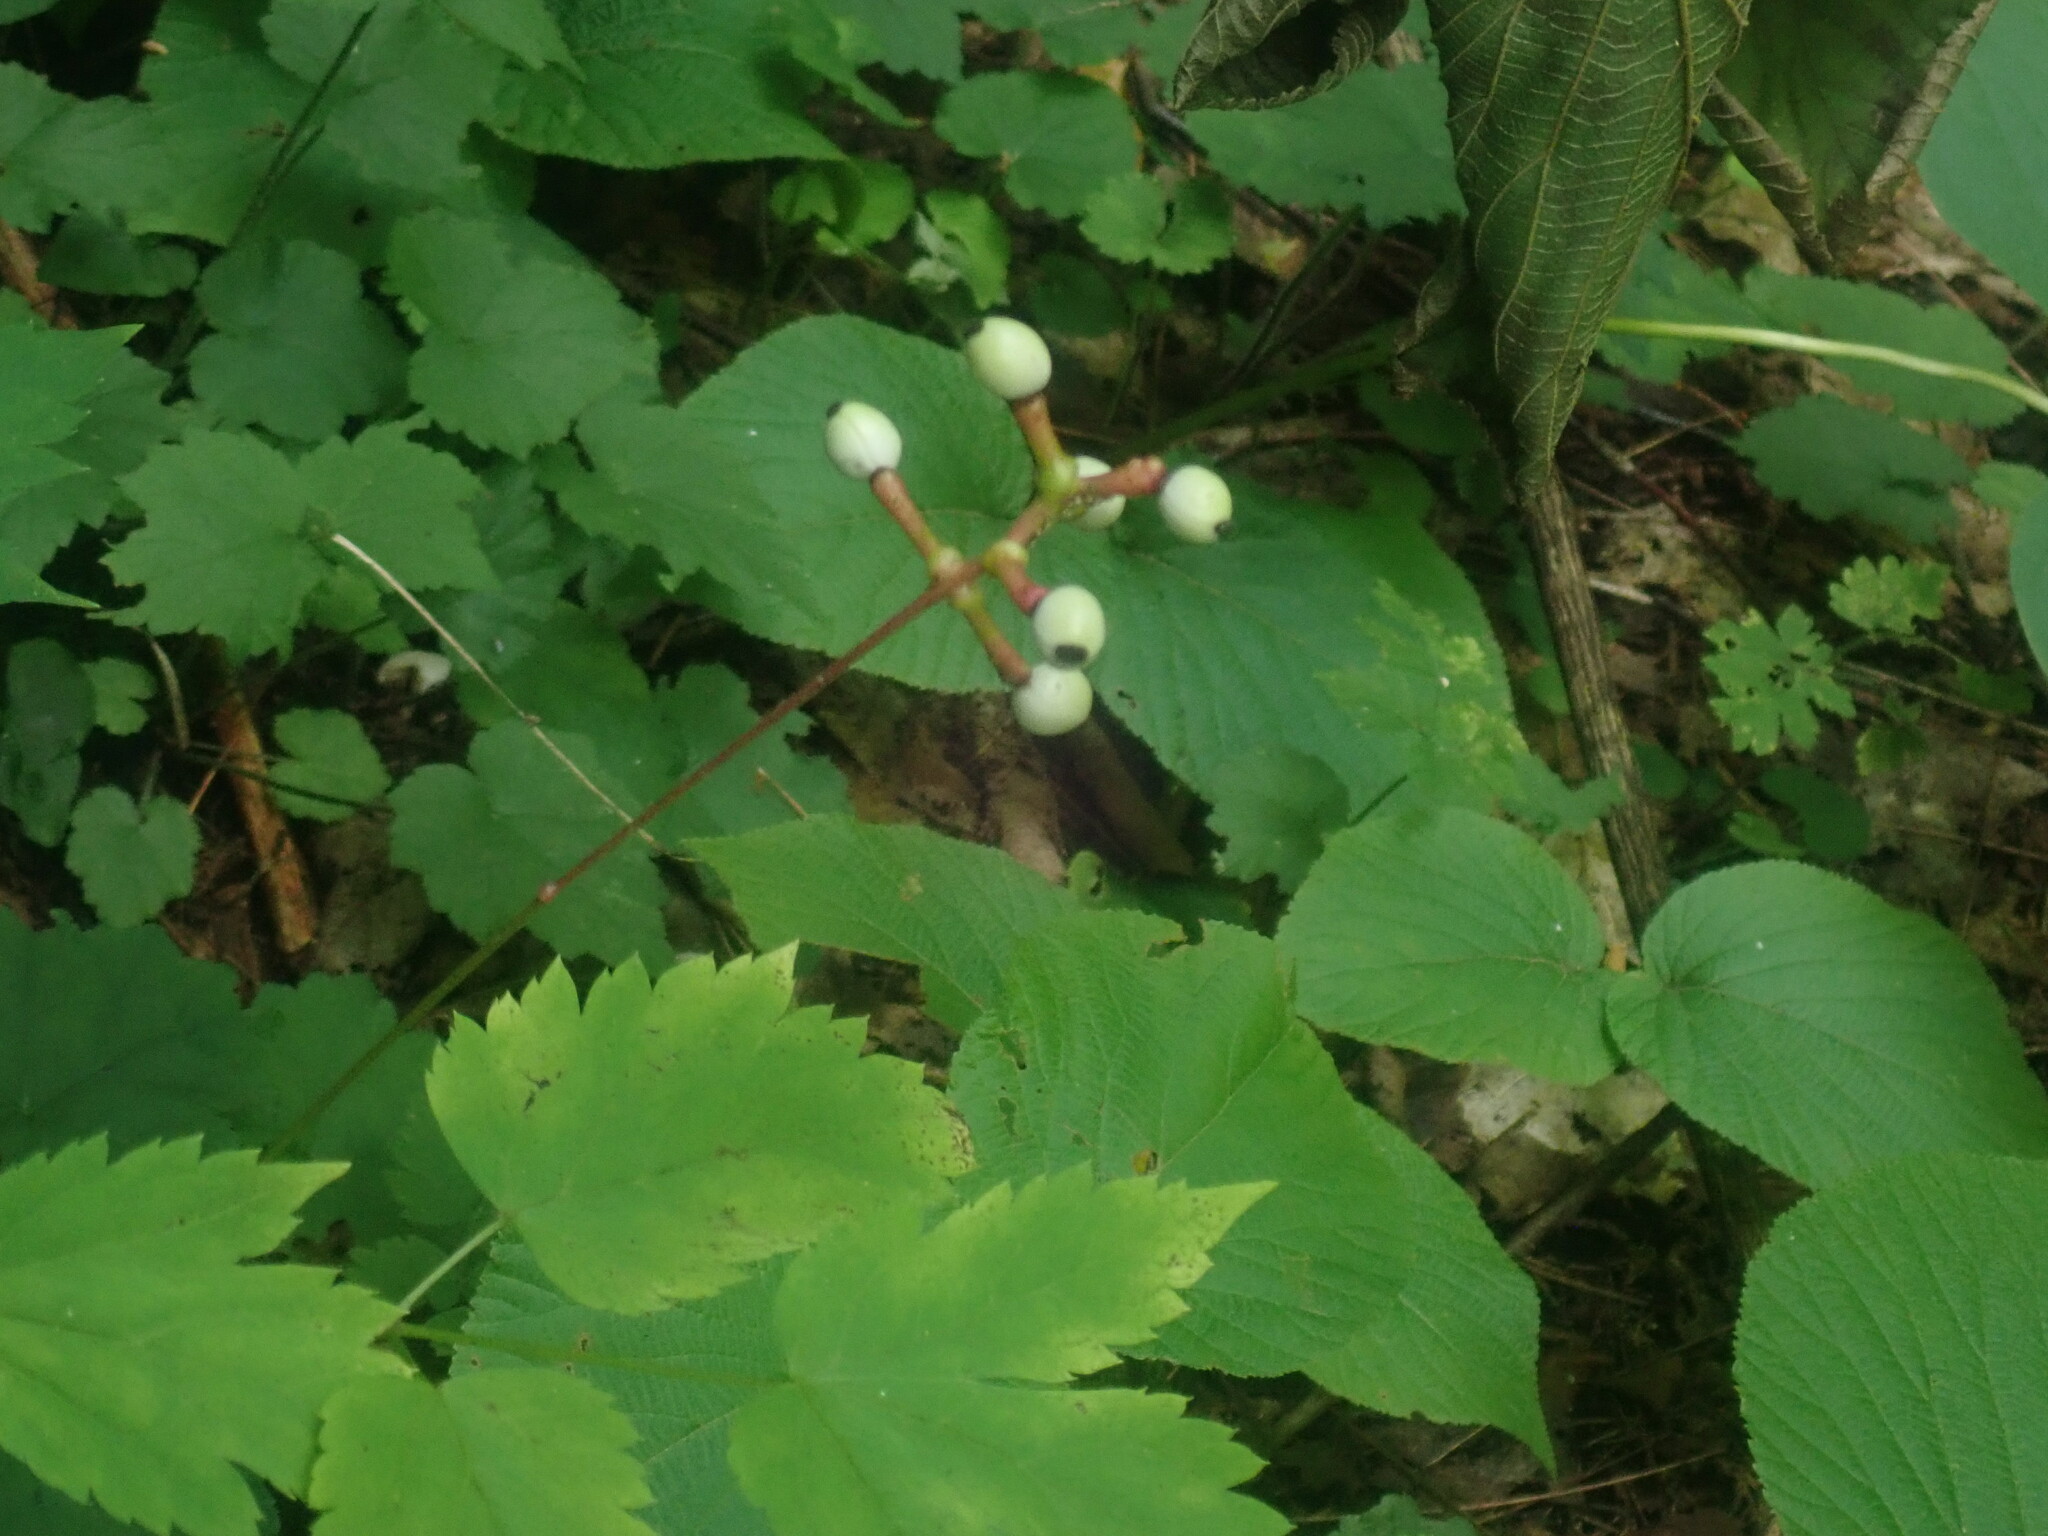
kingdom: Plantae
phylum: Tracheophyta
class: Magnoliopsida
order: Ranunculales
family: Ranunculaceae
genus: Actaea
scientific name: Actaea pachypoda
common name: Doll's-eyes
